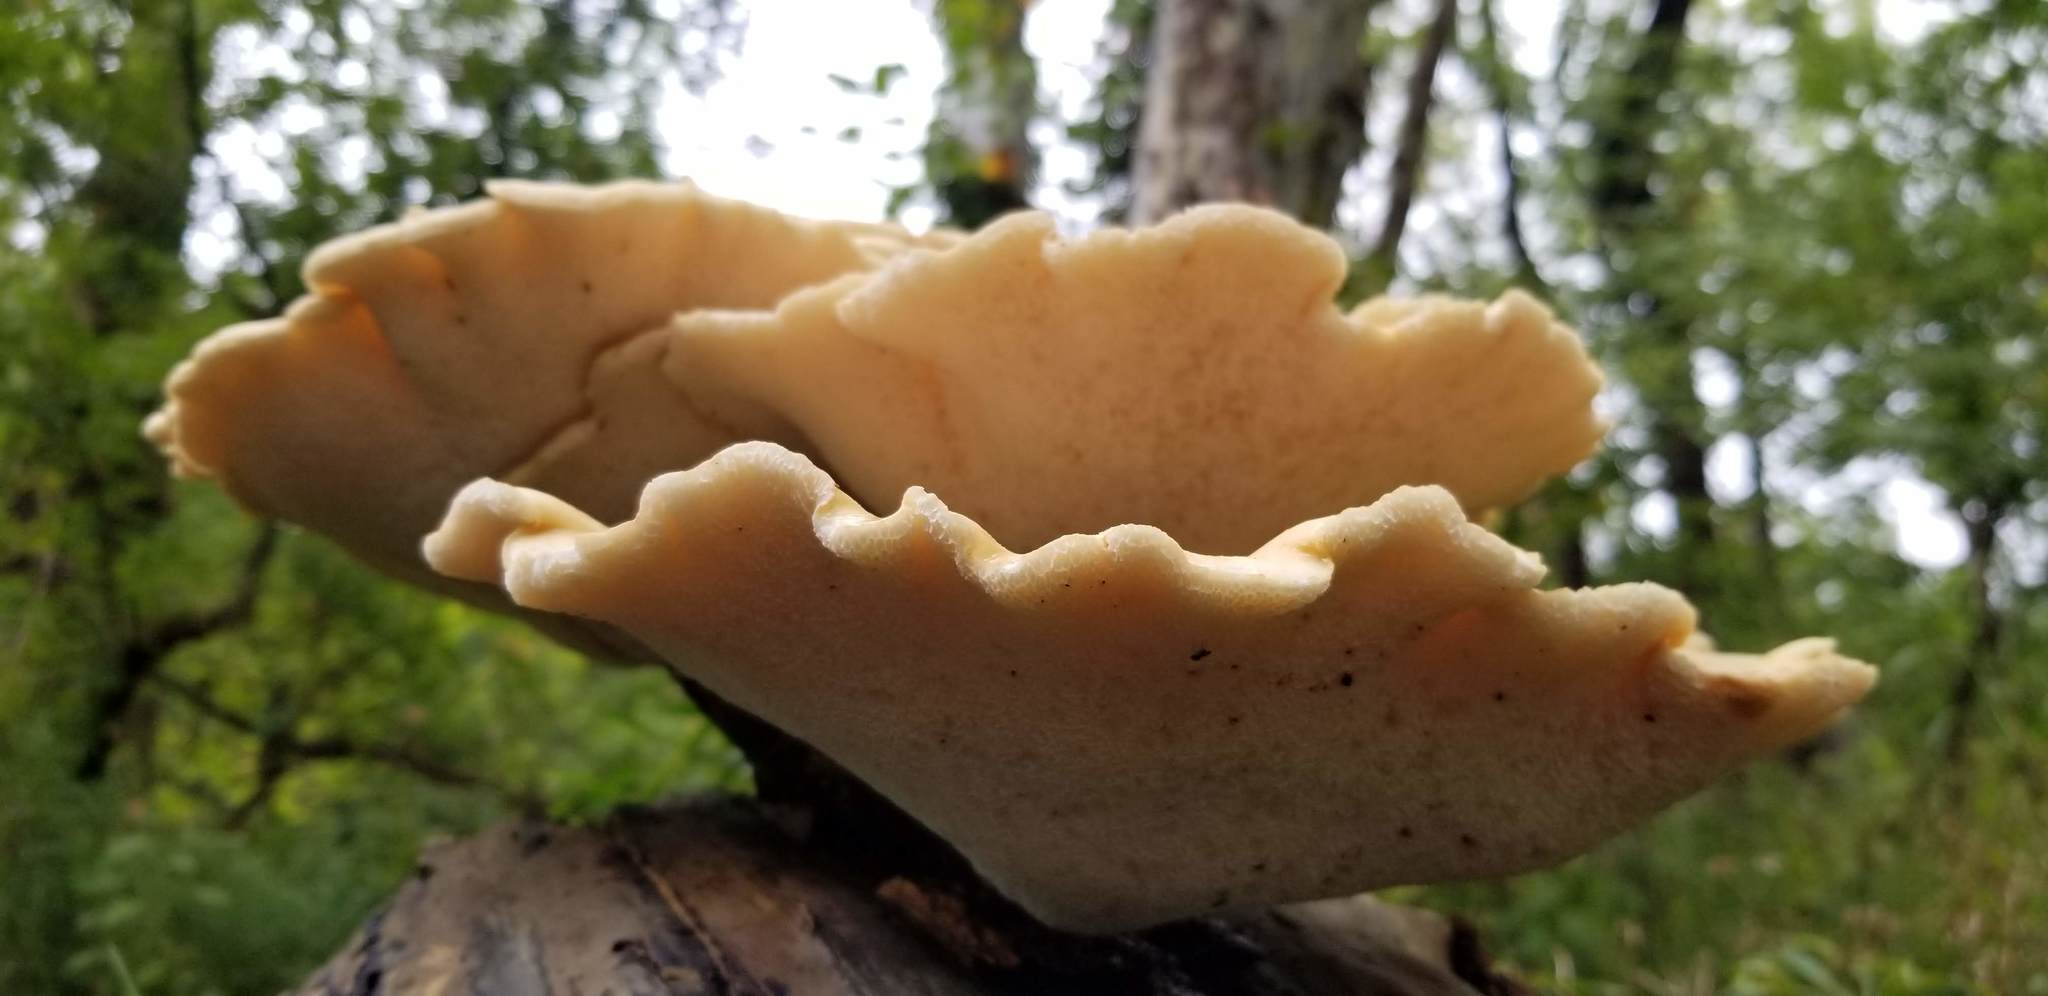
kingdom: Fungi
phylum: Basidiomycota
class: Agaricomycetes
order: Polyporales
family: Polyporaceae
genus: Cerioporus
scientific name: Cerioporus squamosus
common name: Dryad's saddle
